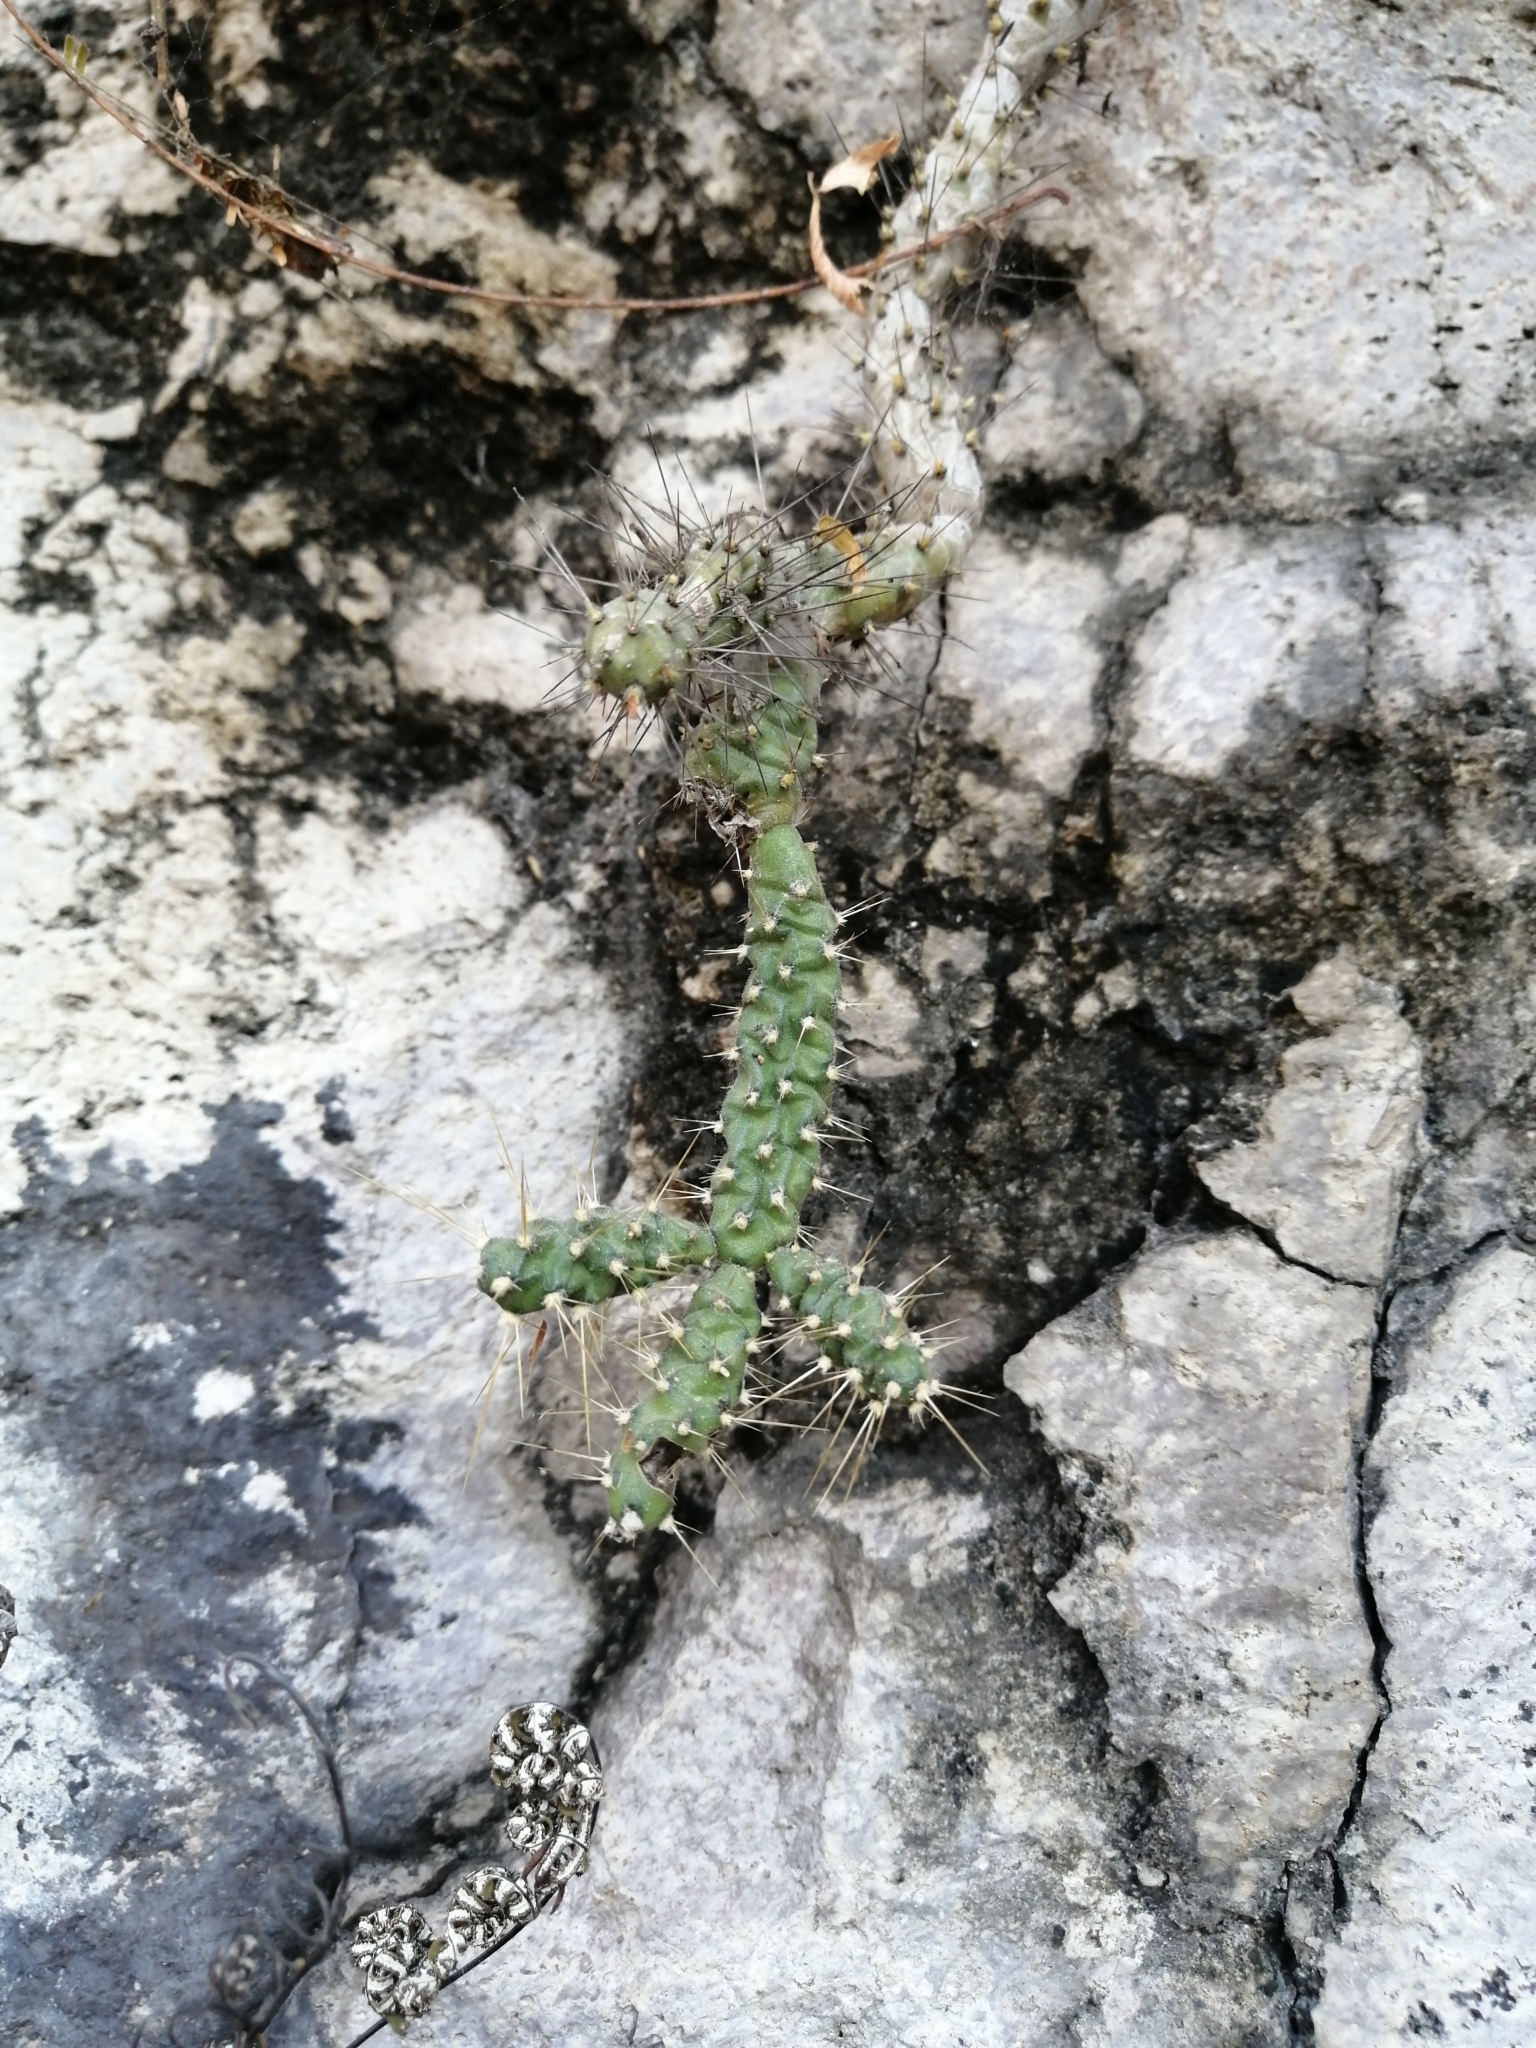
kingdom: Plantae
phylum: Tracheophyta
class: Magnoliopsida
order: Caryophyllales
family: Cactaceae
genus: Opuntia
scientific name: Opuntia pubescens
